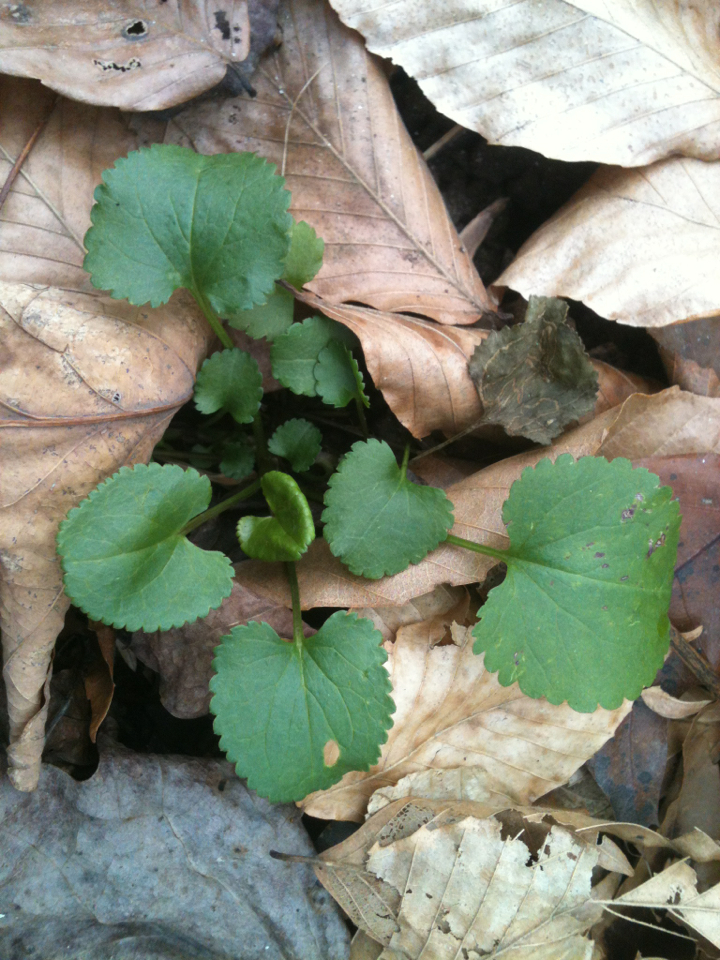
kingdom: Plantae
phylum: Tracheophyta
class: Magnoliopsida
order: Asterales
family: Asteraceae
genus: Packera
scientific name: Packera aurea
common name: Golden groundsel
